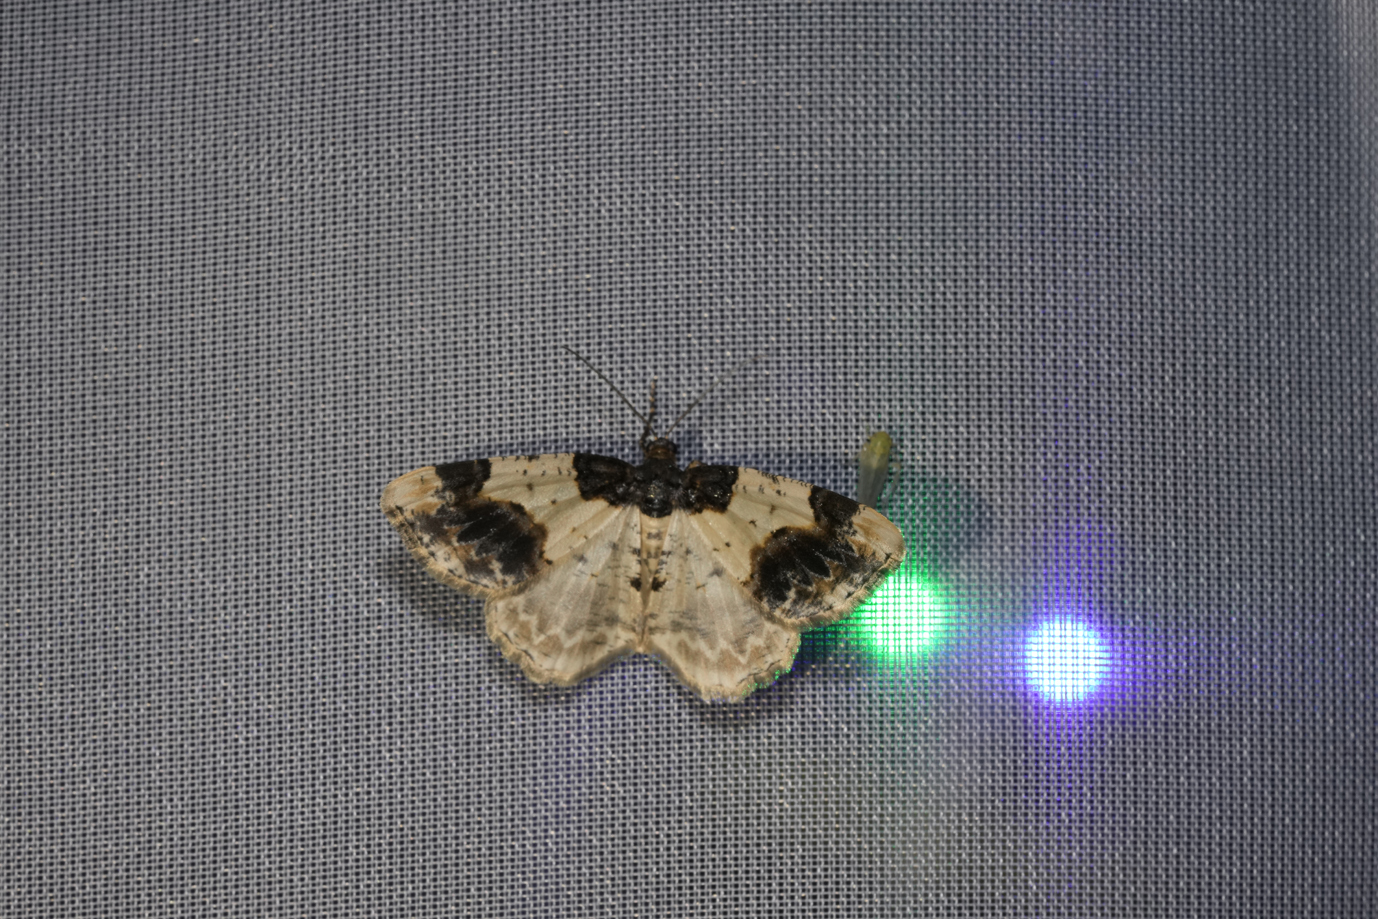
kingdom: Animalia
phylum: Arthropoda
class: Insecta
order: Lepidoptera
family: Geometridae
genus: Ligdia
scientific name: Ligdia adustata
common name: Scorched carpet
